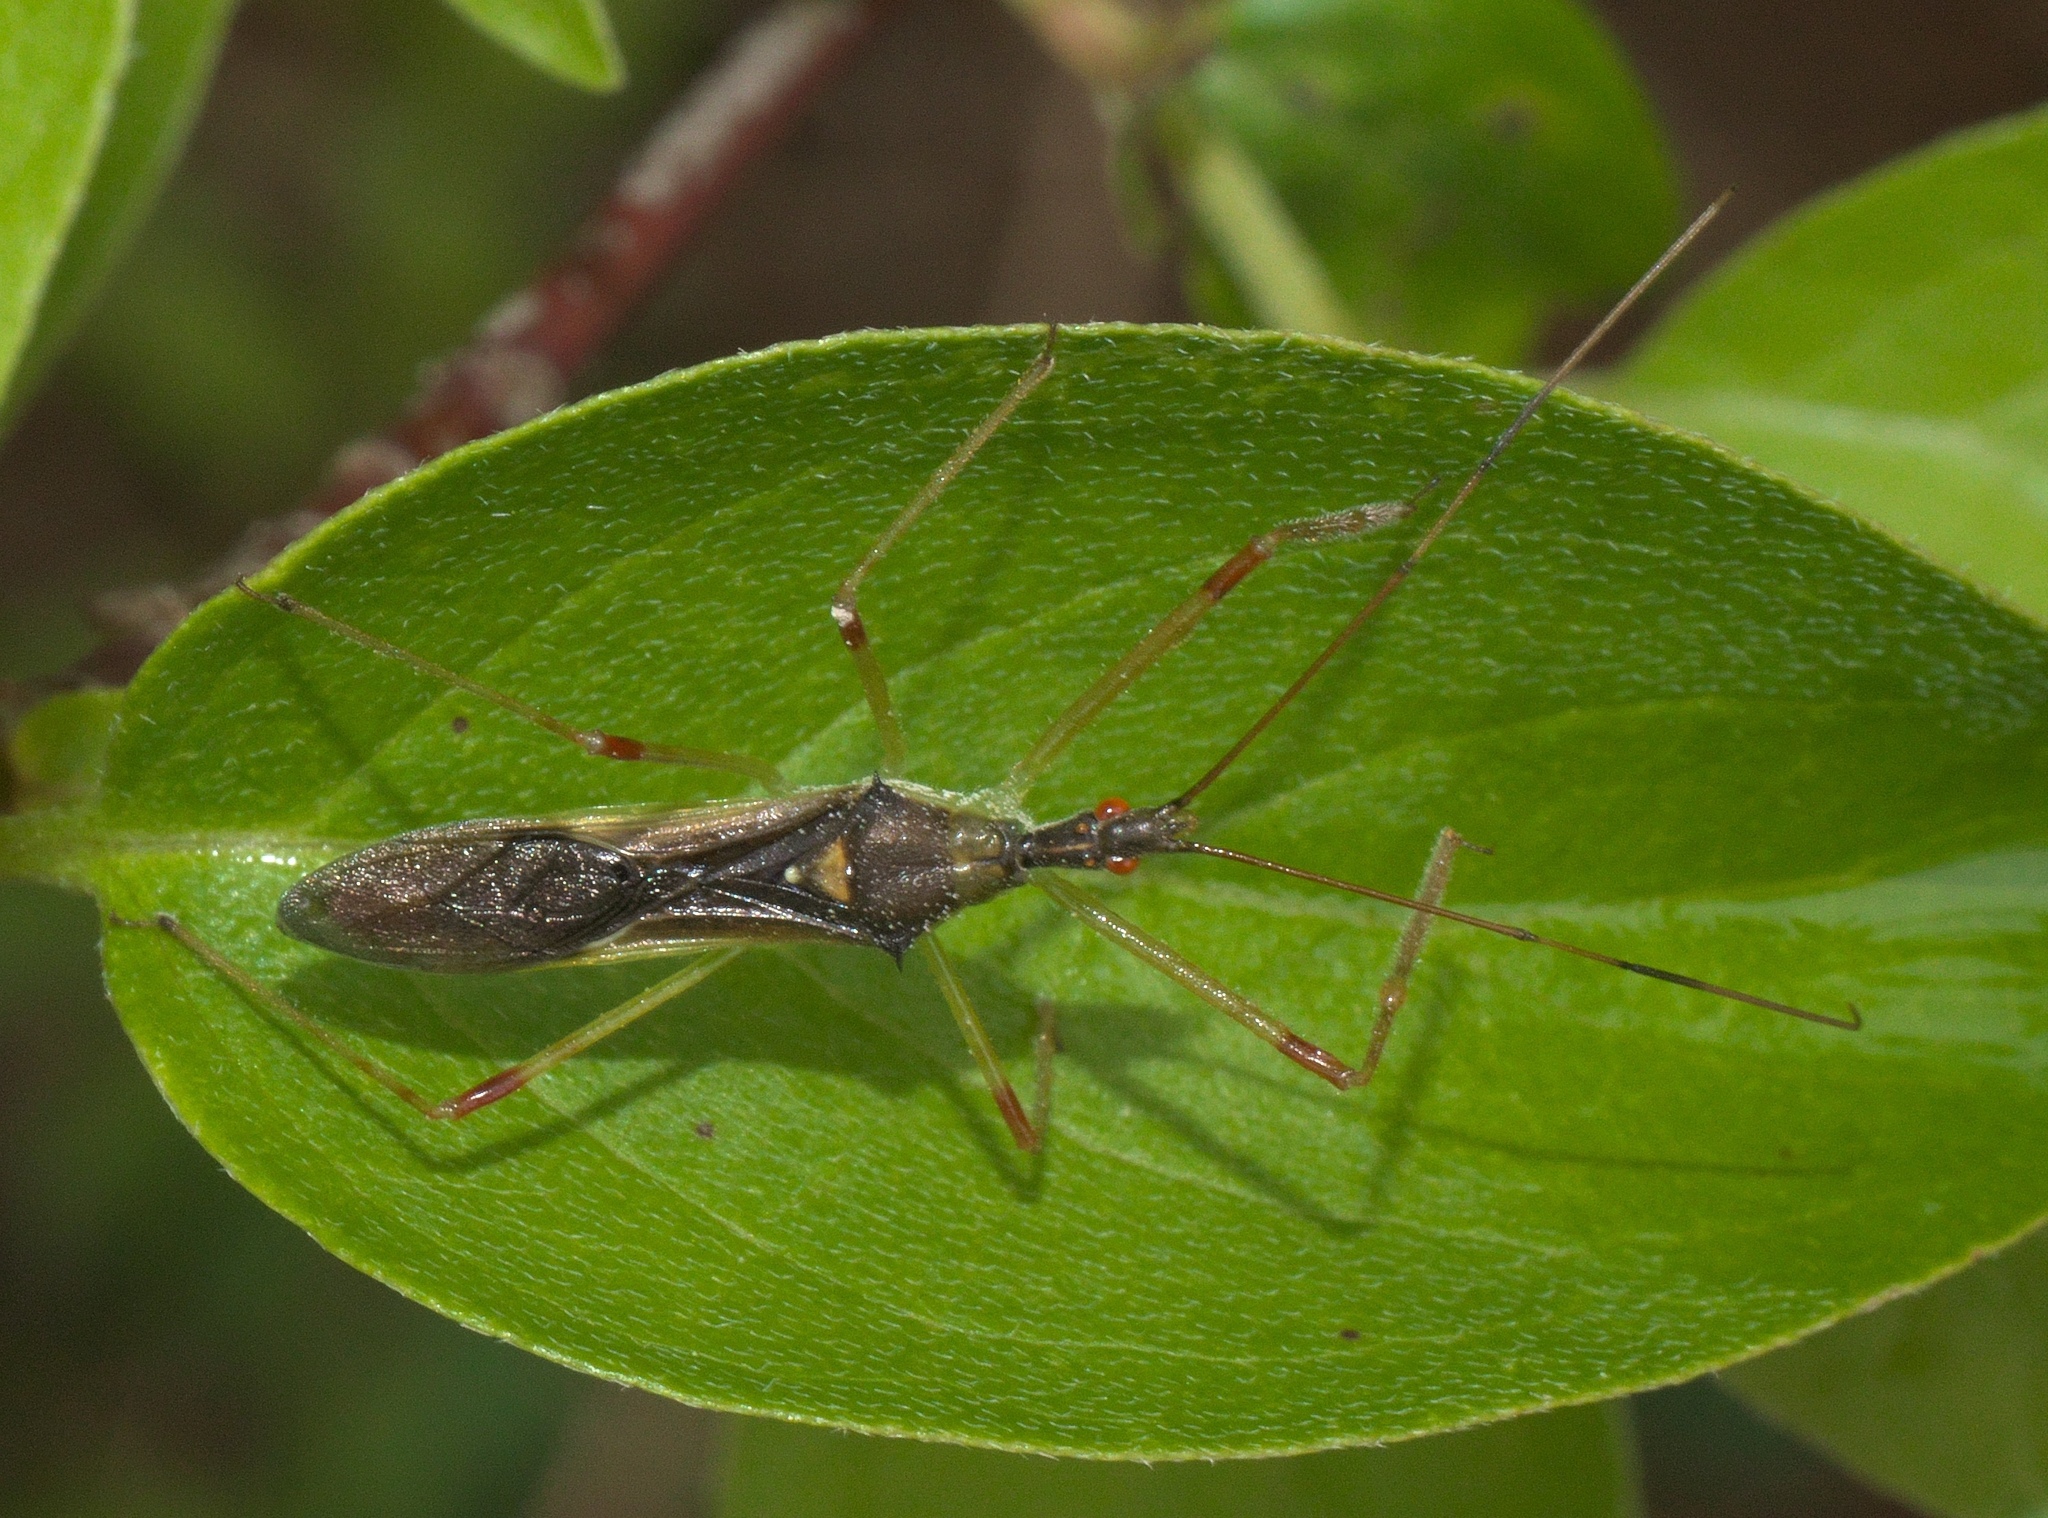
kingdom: Animalia
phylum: Arthropoda
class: Insecta
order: Hemiptera
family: Reduviidae
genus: Zelus
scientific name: Zelus luridus
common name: Pale green assassin bug
